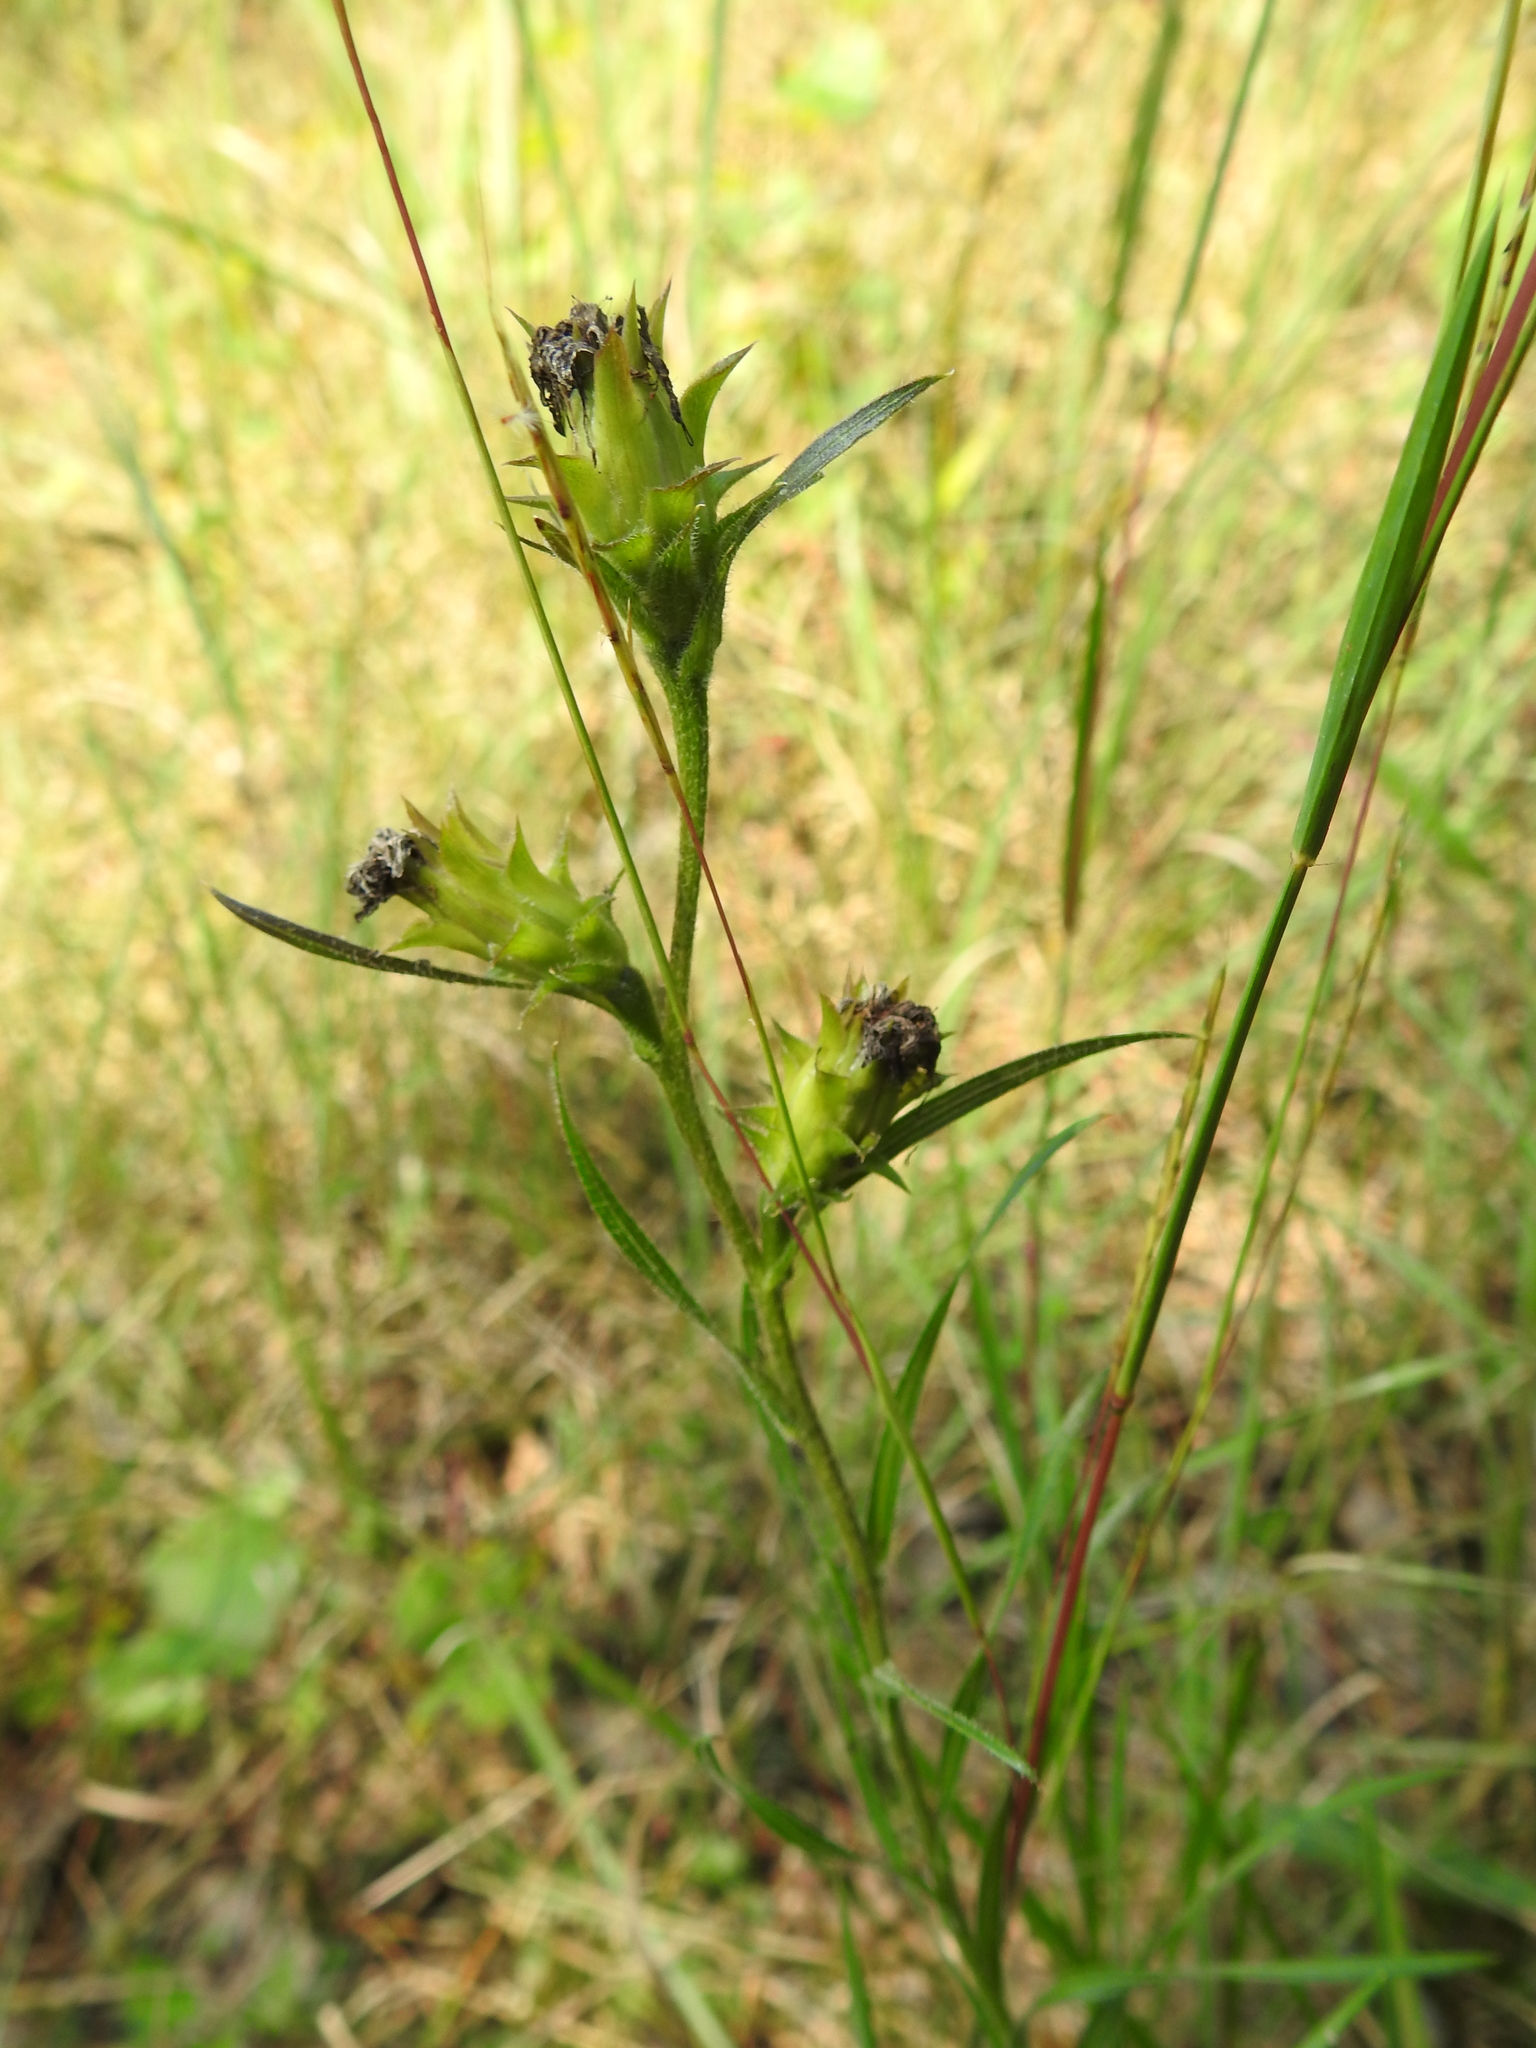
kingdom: Plantae
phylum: Tracheophyta
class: Magnoliopsida
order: Asterales
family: Asteraceae
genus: Liatris
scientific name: Liatris squarrosa
